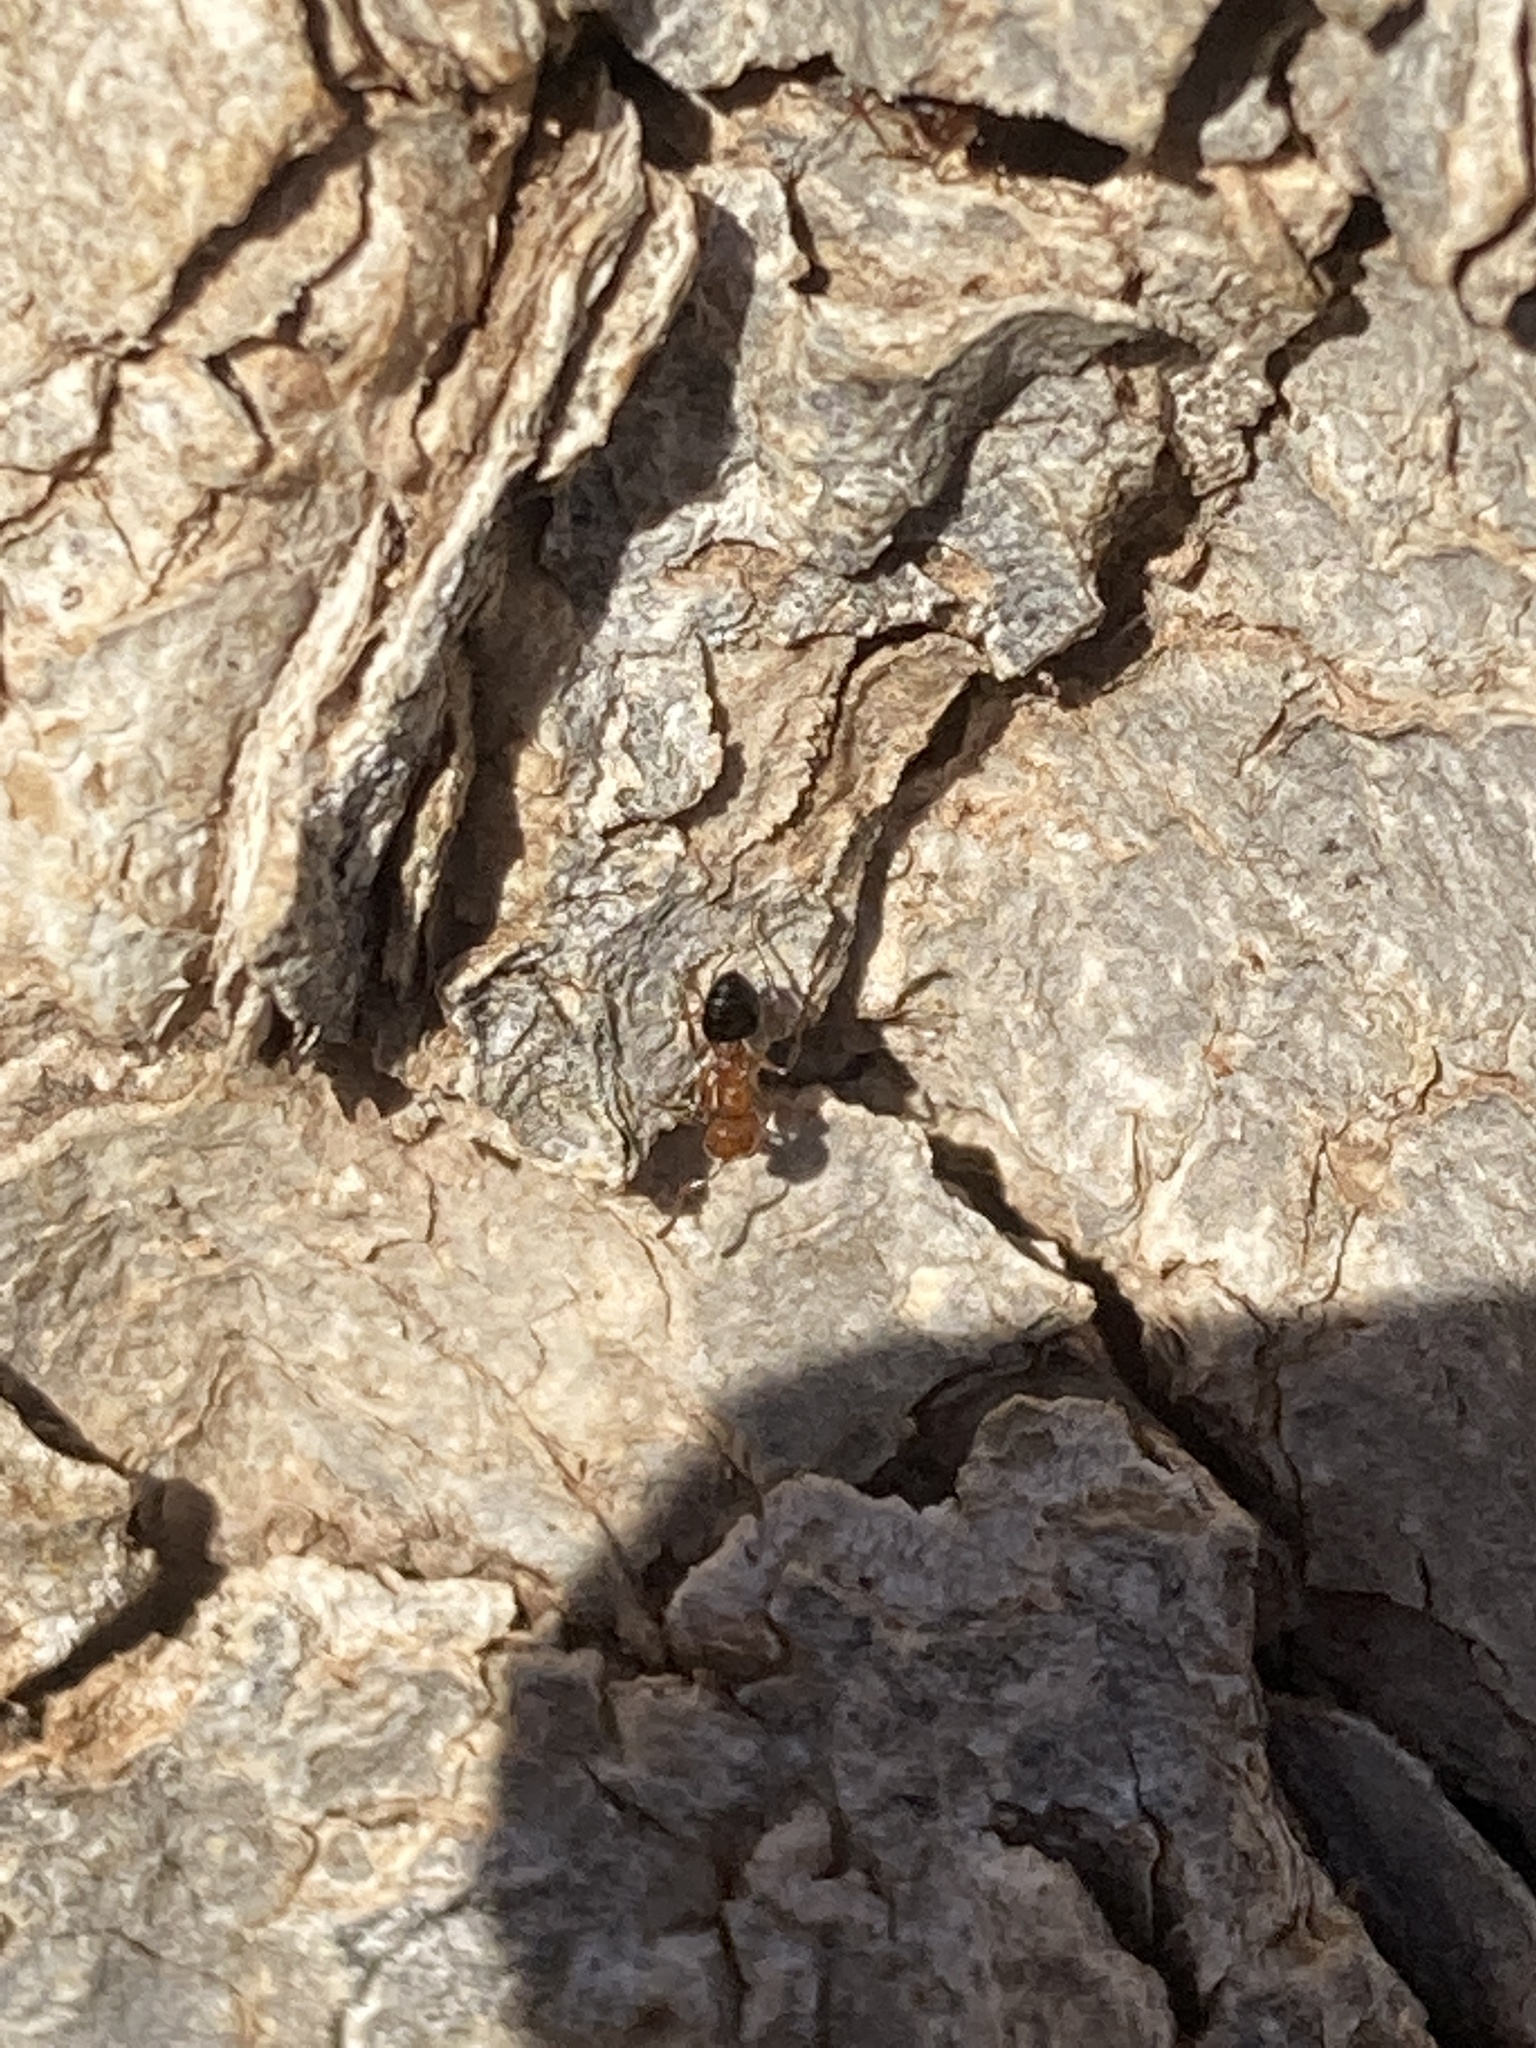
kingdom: Animalia
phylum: Arthropoda
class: Insecta
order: Hymenoptera
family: Formicidae
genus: Crematogaster
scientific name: Crematogaster laeviuscula
